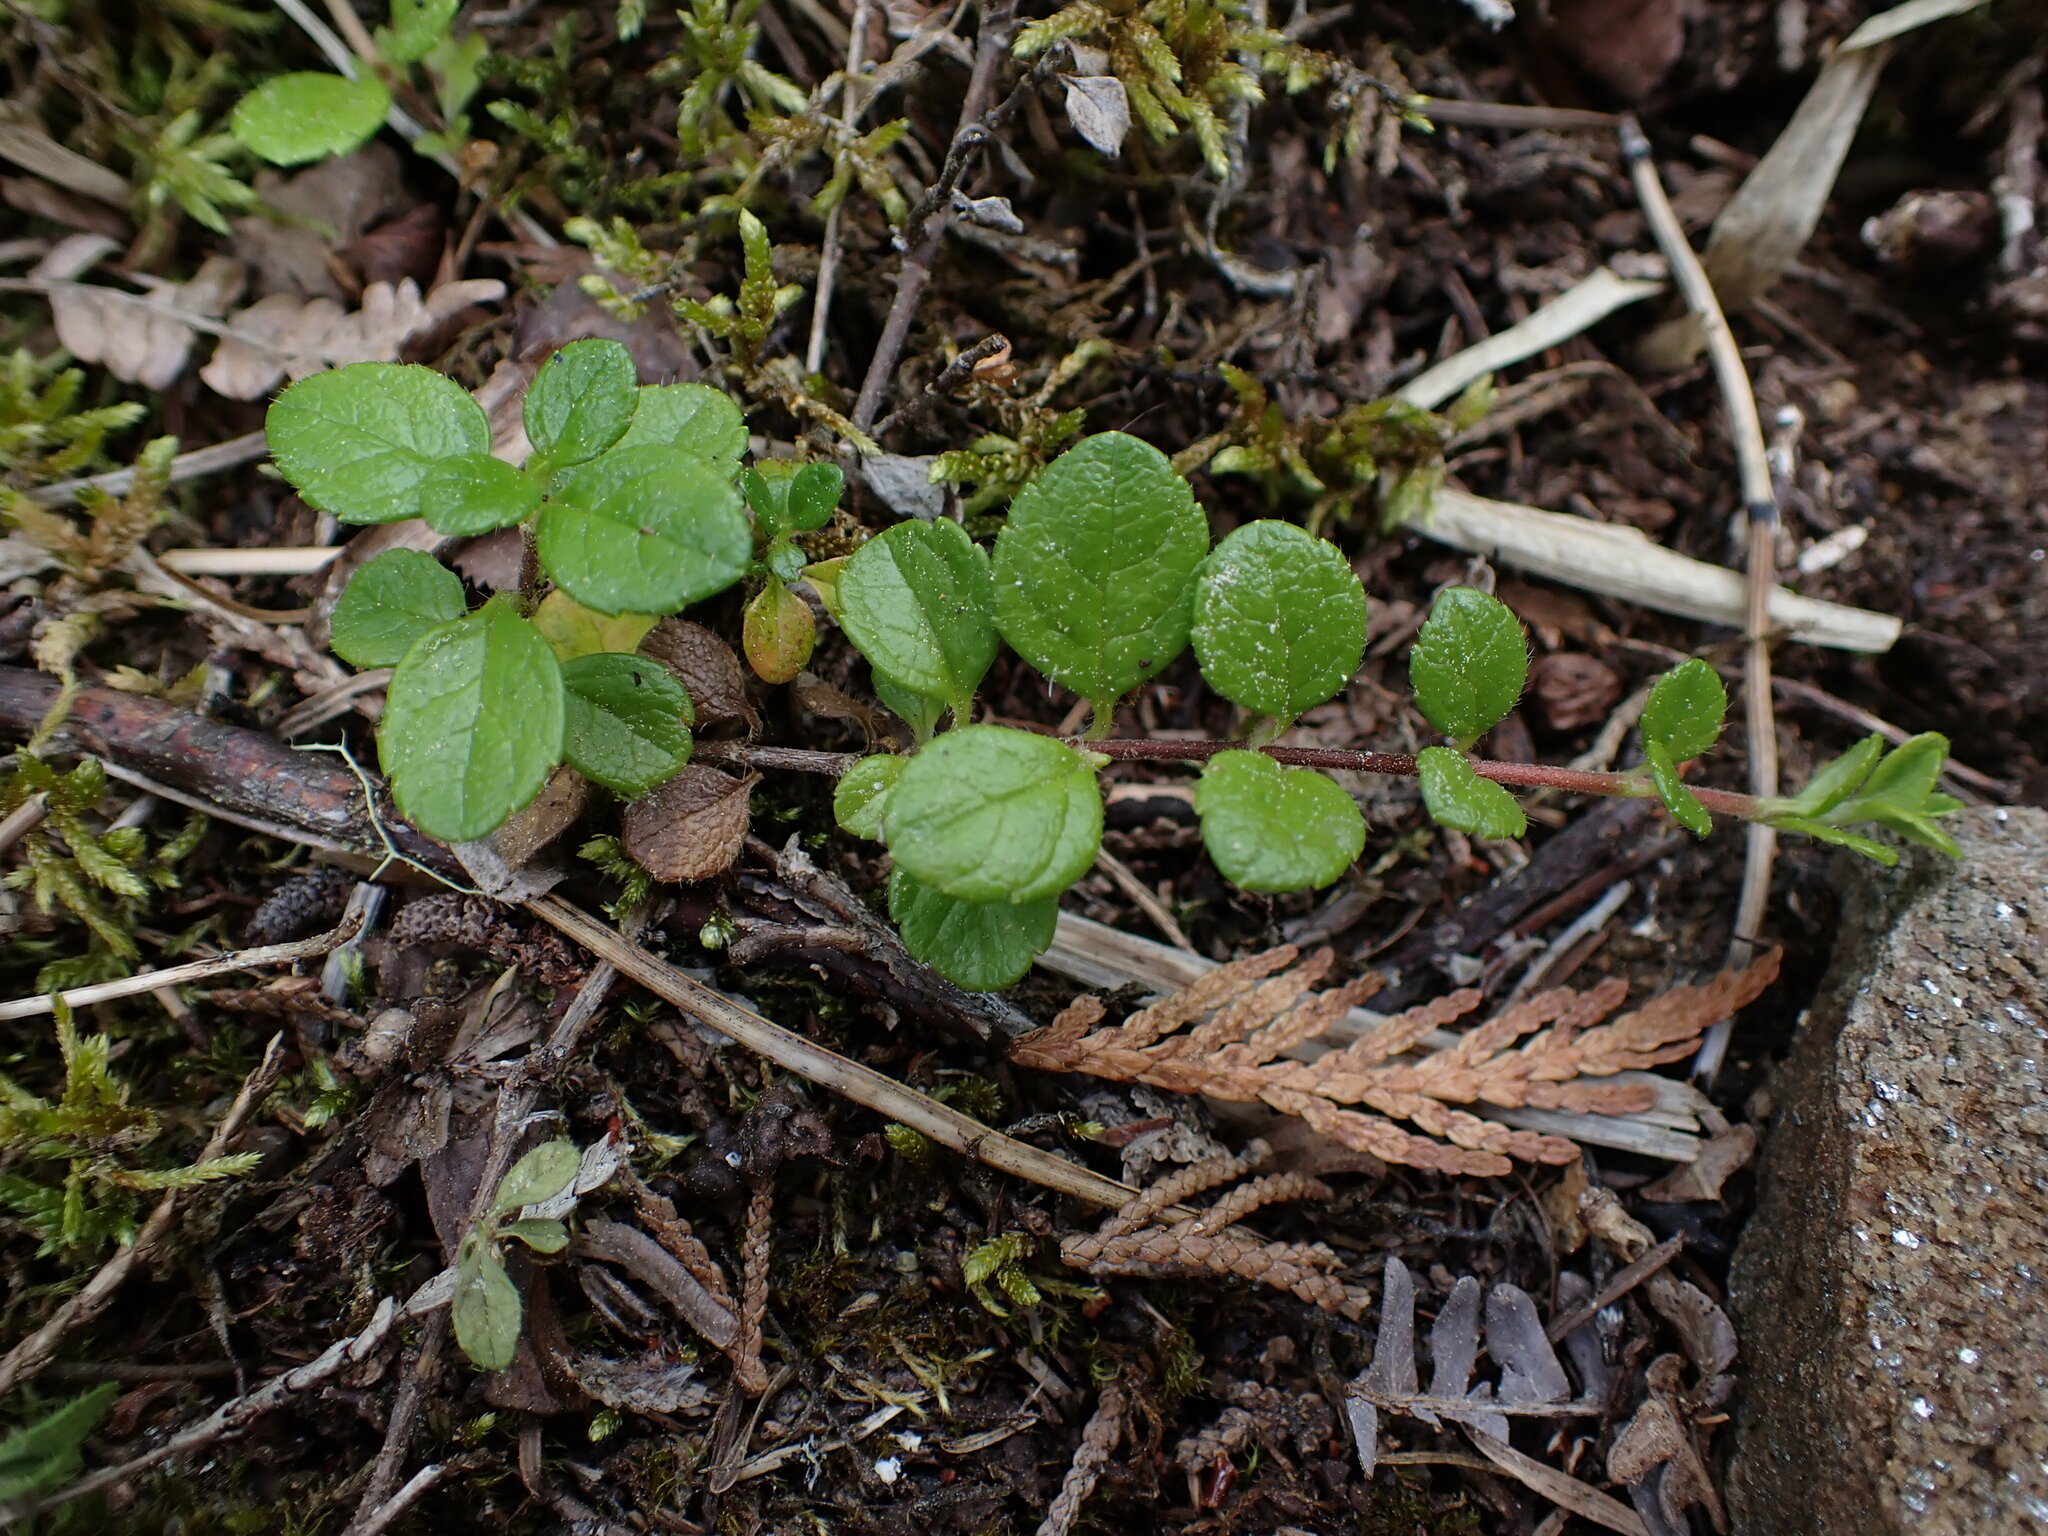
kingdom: Plantae
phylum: Tracheophyta
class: Magnoliopsida
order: Dipsacales
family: Caprifoliaceae
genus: Linnaea
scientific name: Linnaea borealis
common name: Twinflower
